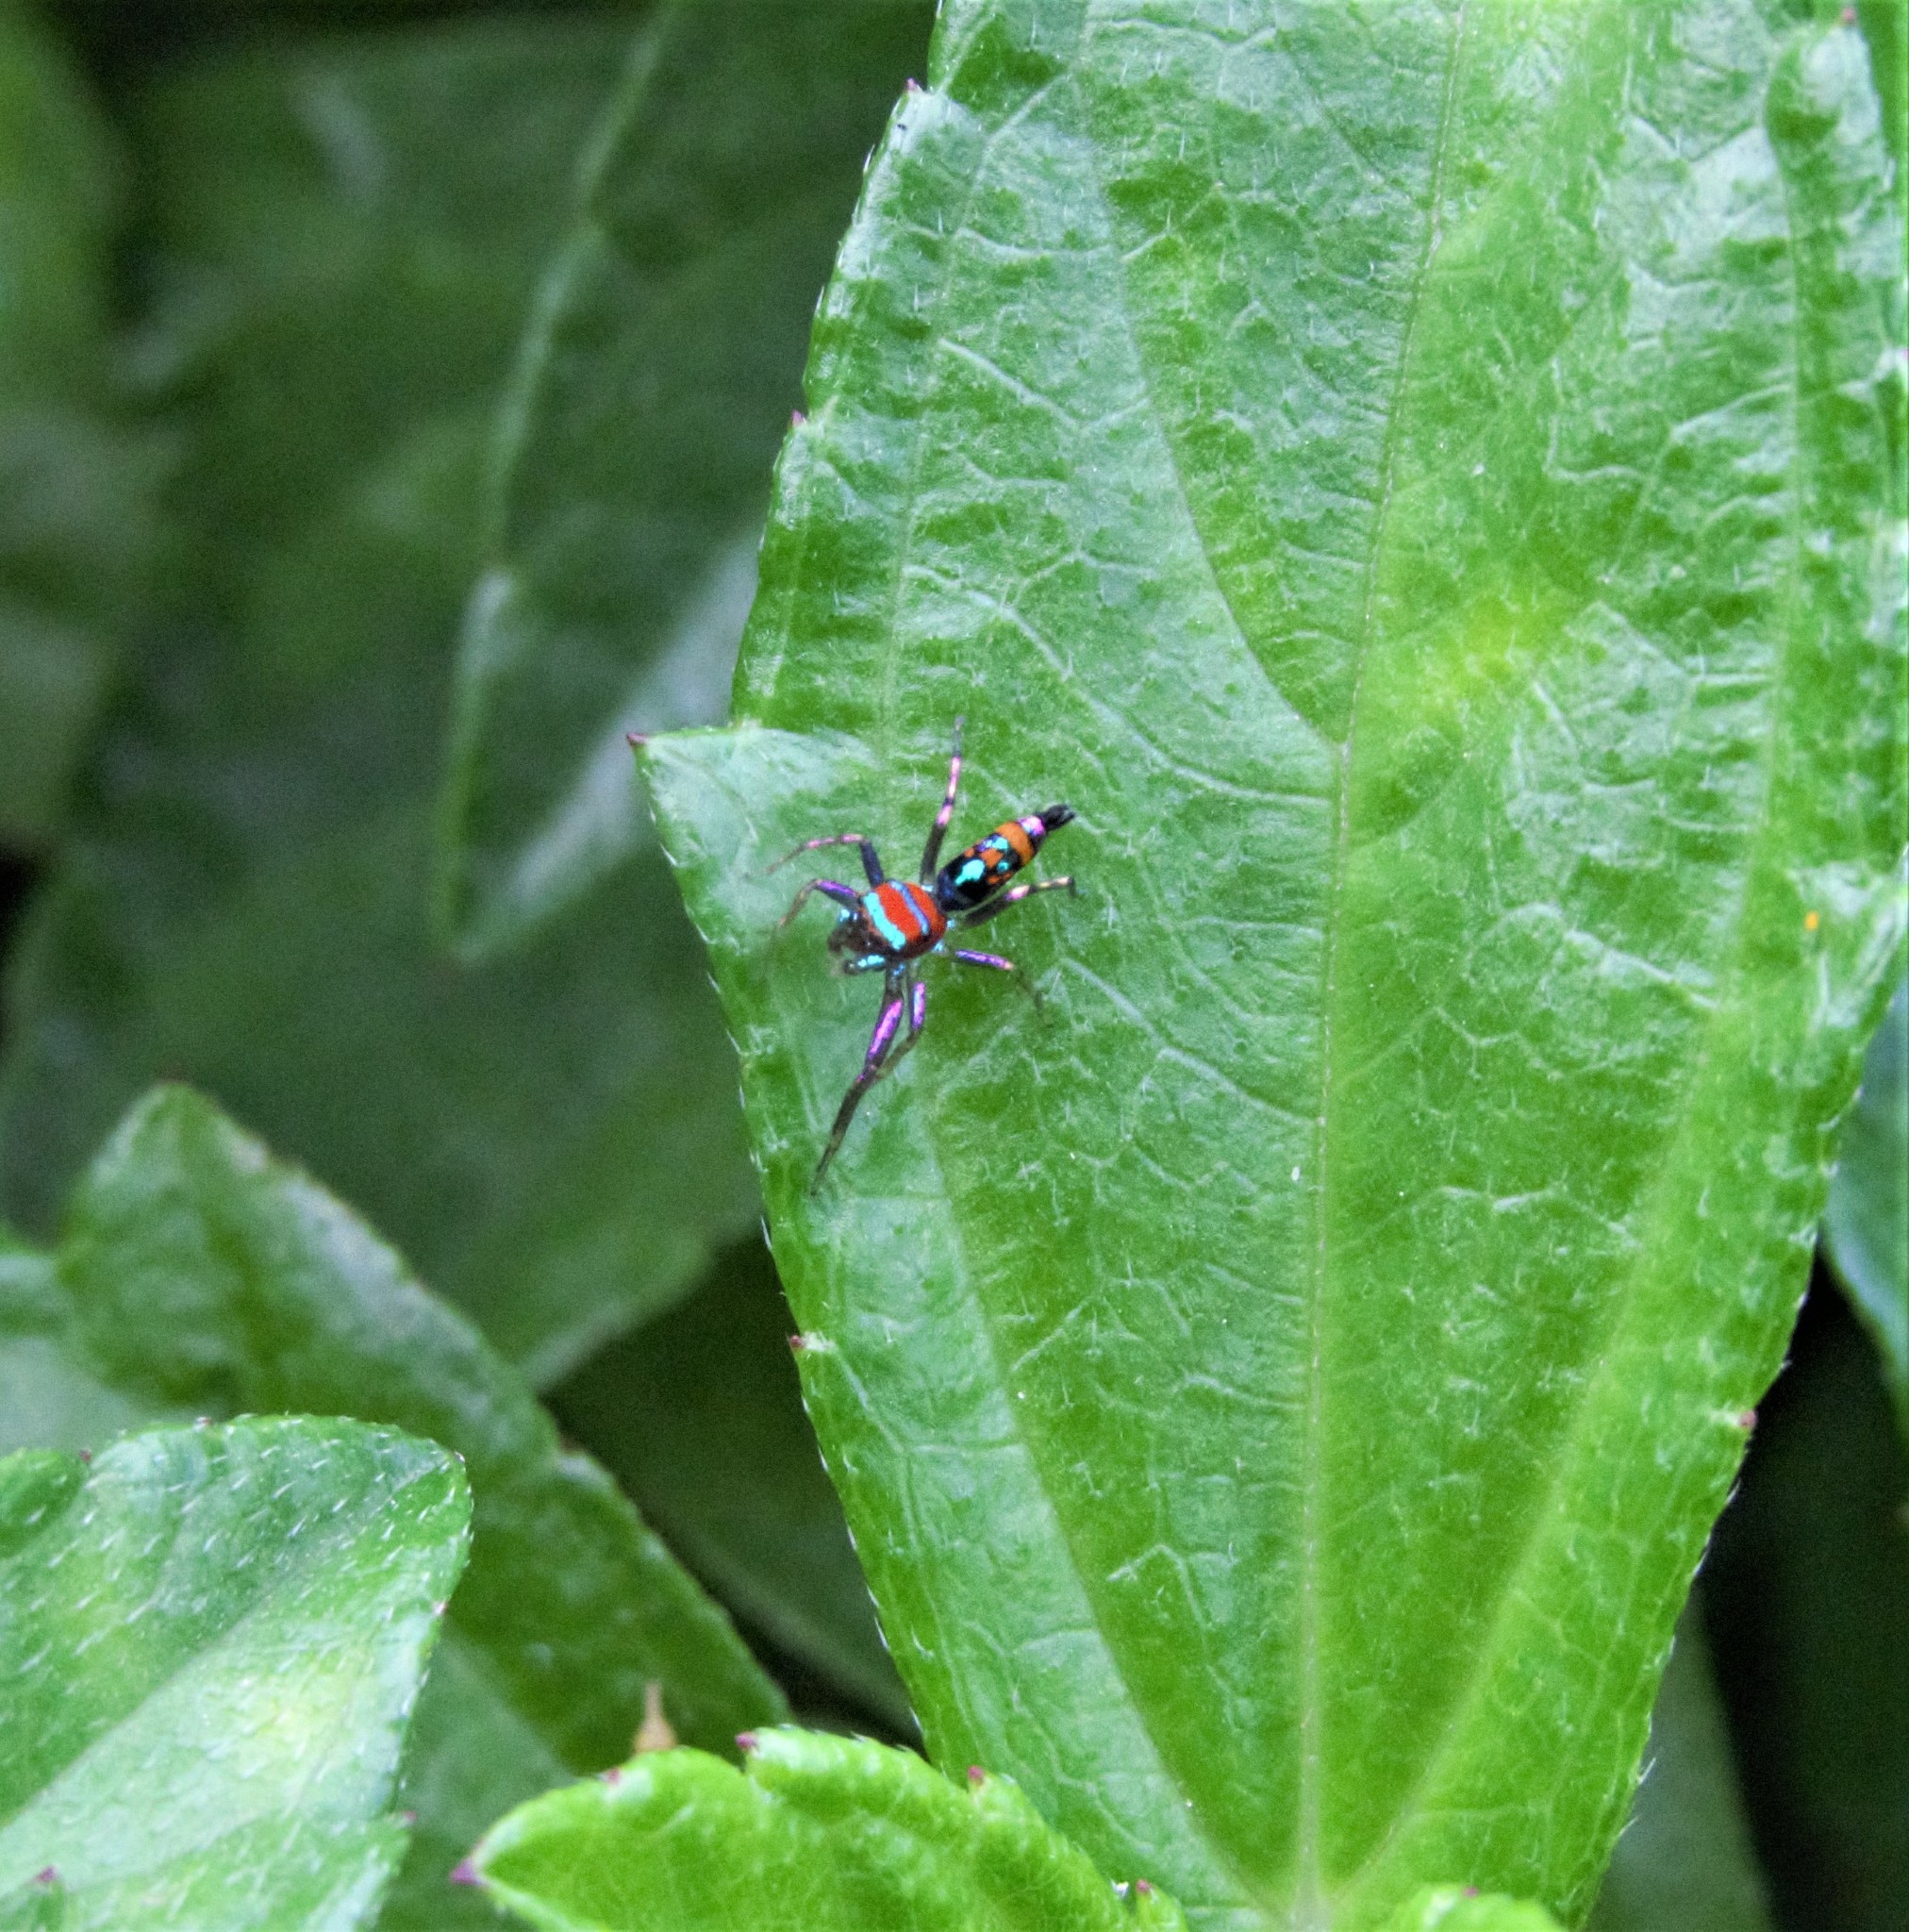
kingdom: Animalia
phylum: Arthropoda
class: Arachnida
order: Araneae
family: Salticidae
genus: Chrysilla
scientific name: Chrysilla volupe
